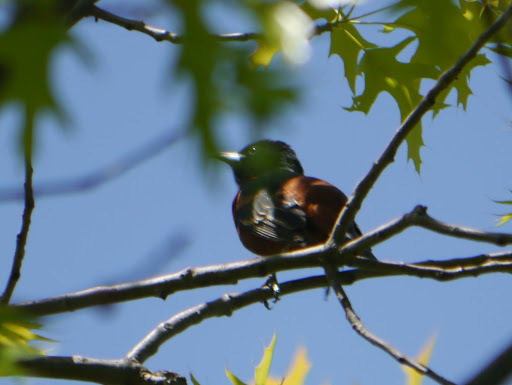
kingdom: Animalia
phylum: Chordata
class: Aves
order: Passeriformes
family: Icteridae
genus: Icterus
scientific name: Icterus spurius
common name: Orchard oriole
